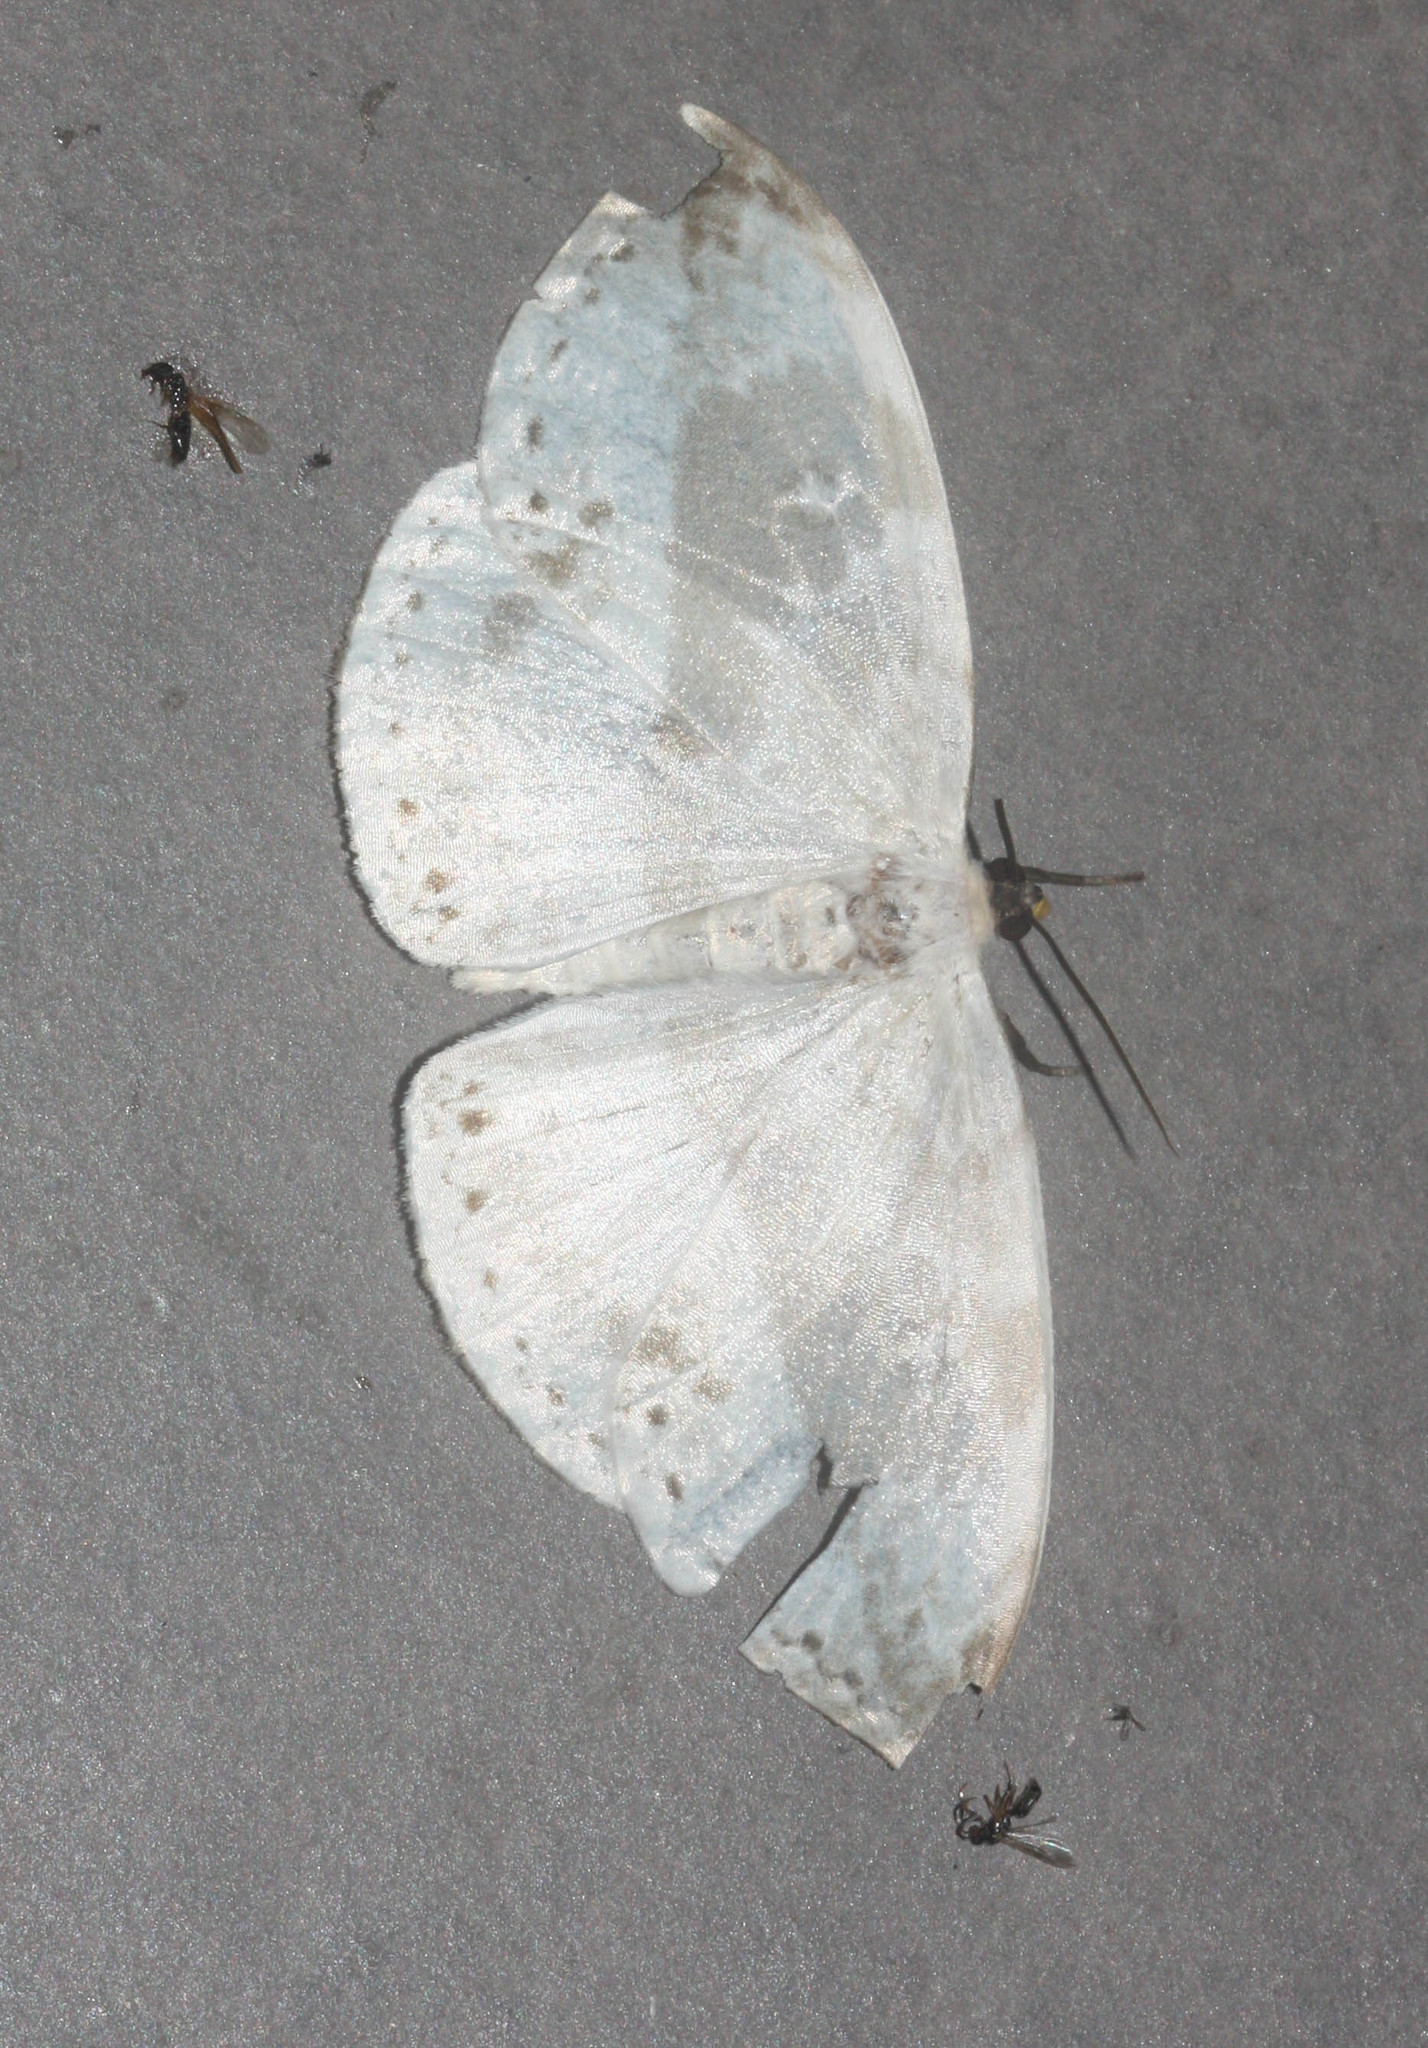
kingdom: Animalia
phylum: Arthropoda
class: Insecta
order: Lepidoptera
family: Drepanidae
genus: Cyclidia
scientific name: Cyclidia substigmaria
